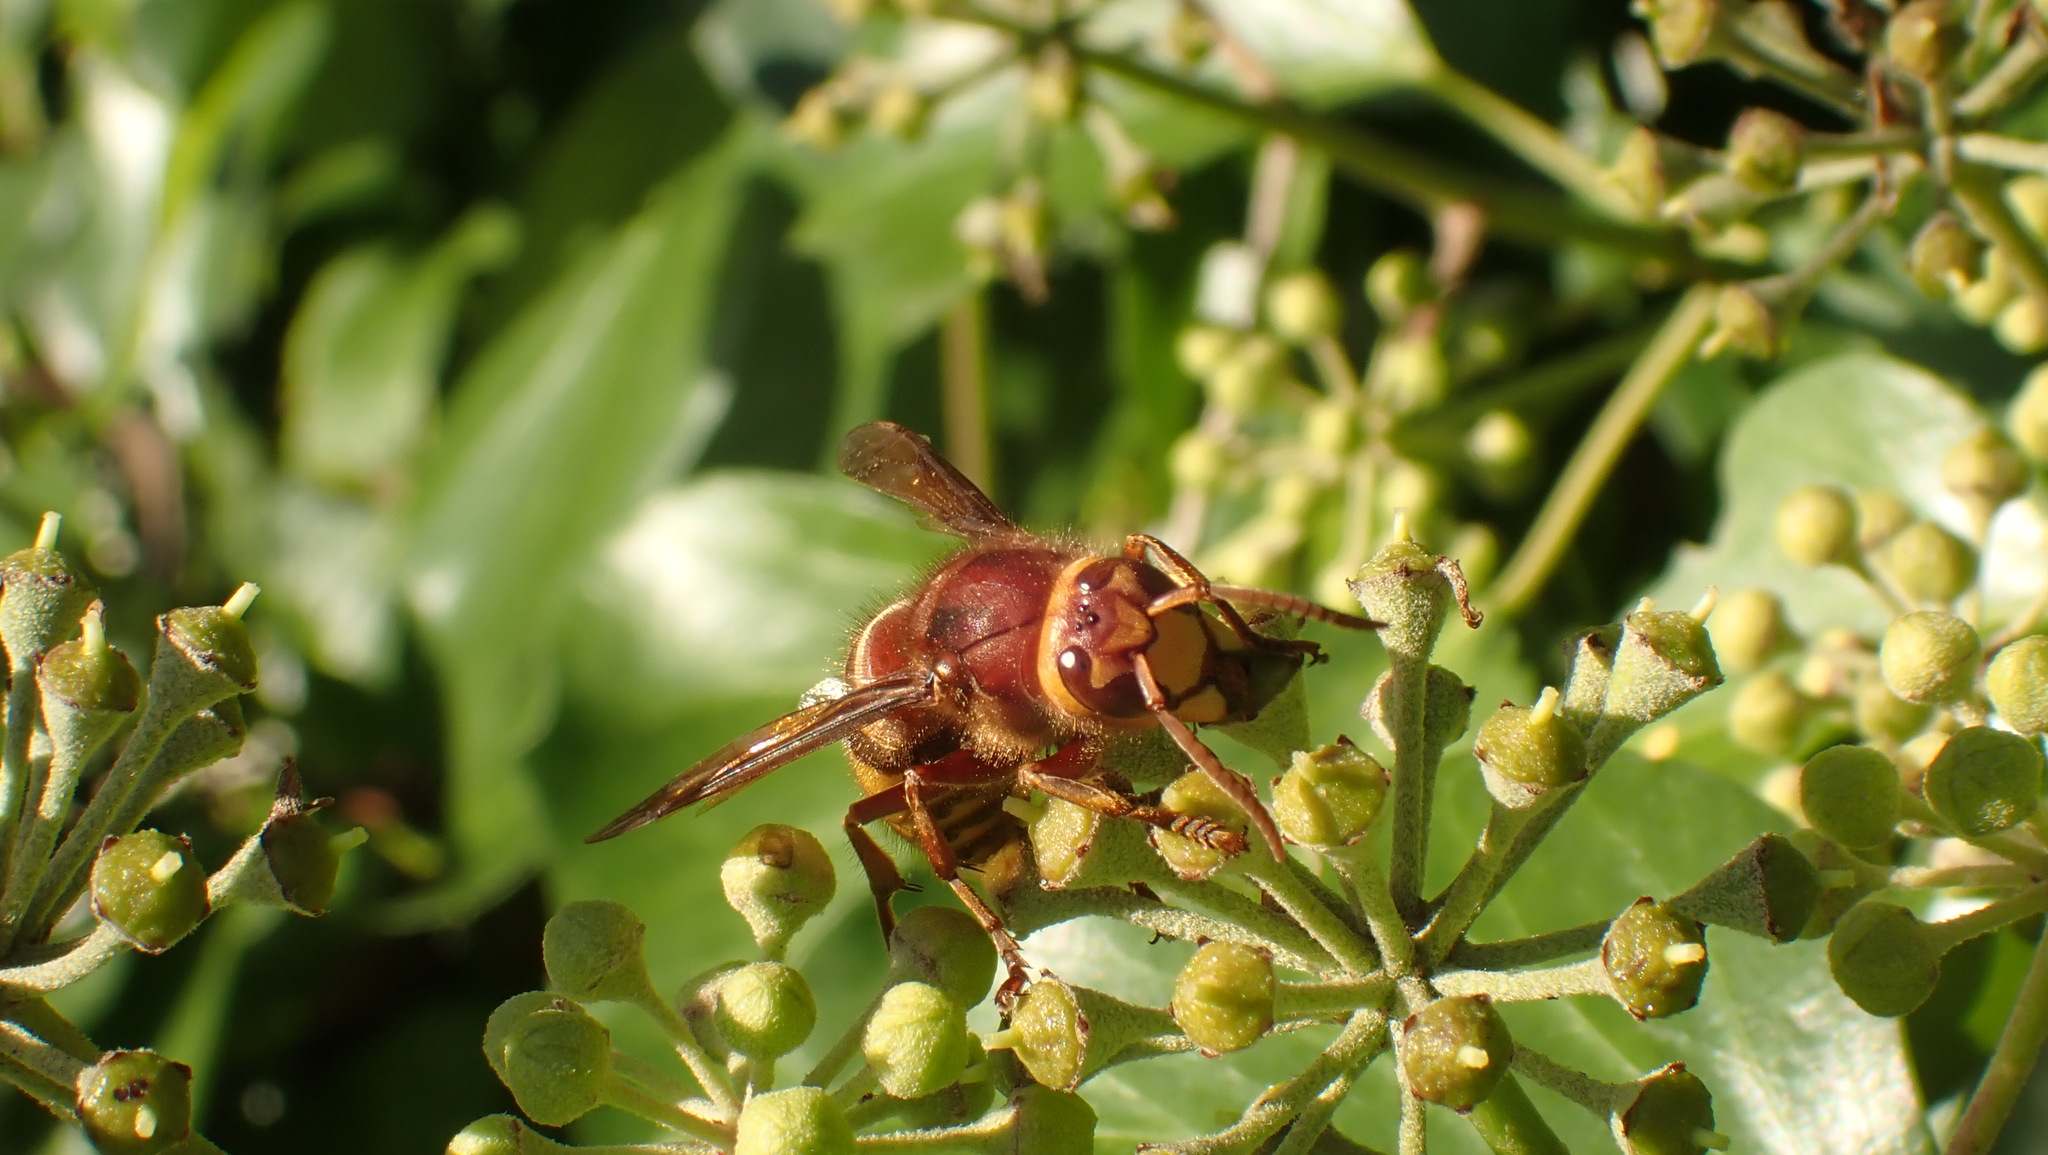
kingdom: Animalia
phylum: Arthropoda
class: Insecta
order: Hymenoptera
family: Vespidae
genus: Vespa
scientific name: Vespa crabro
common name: Hornet
